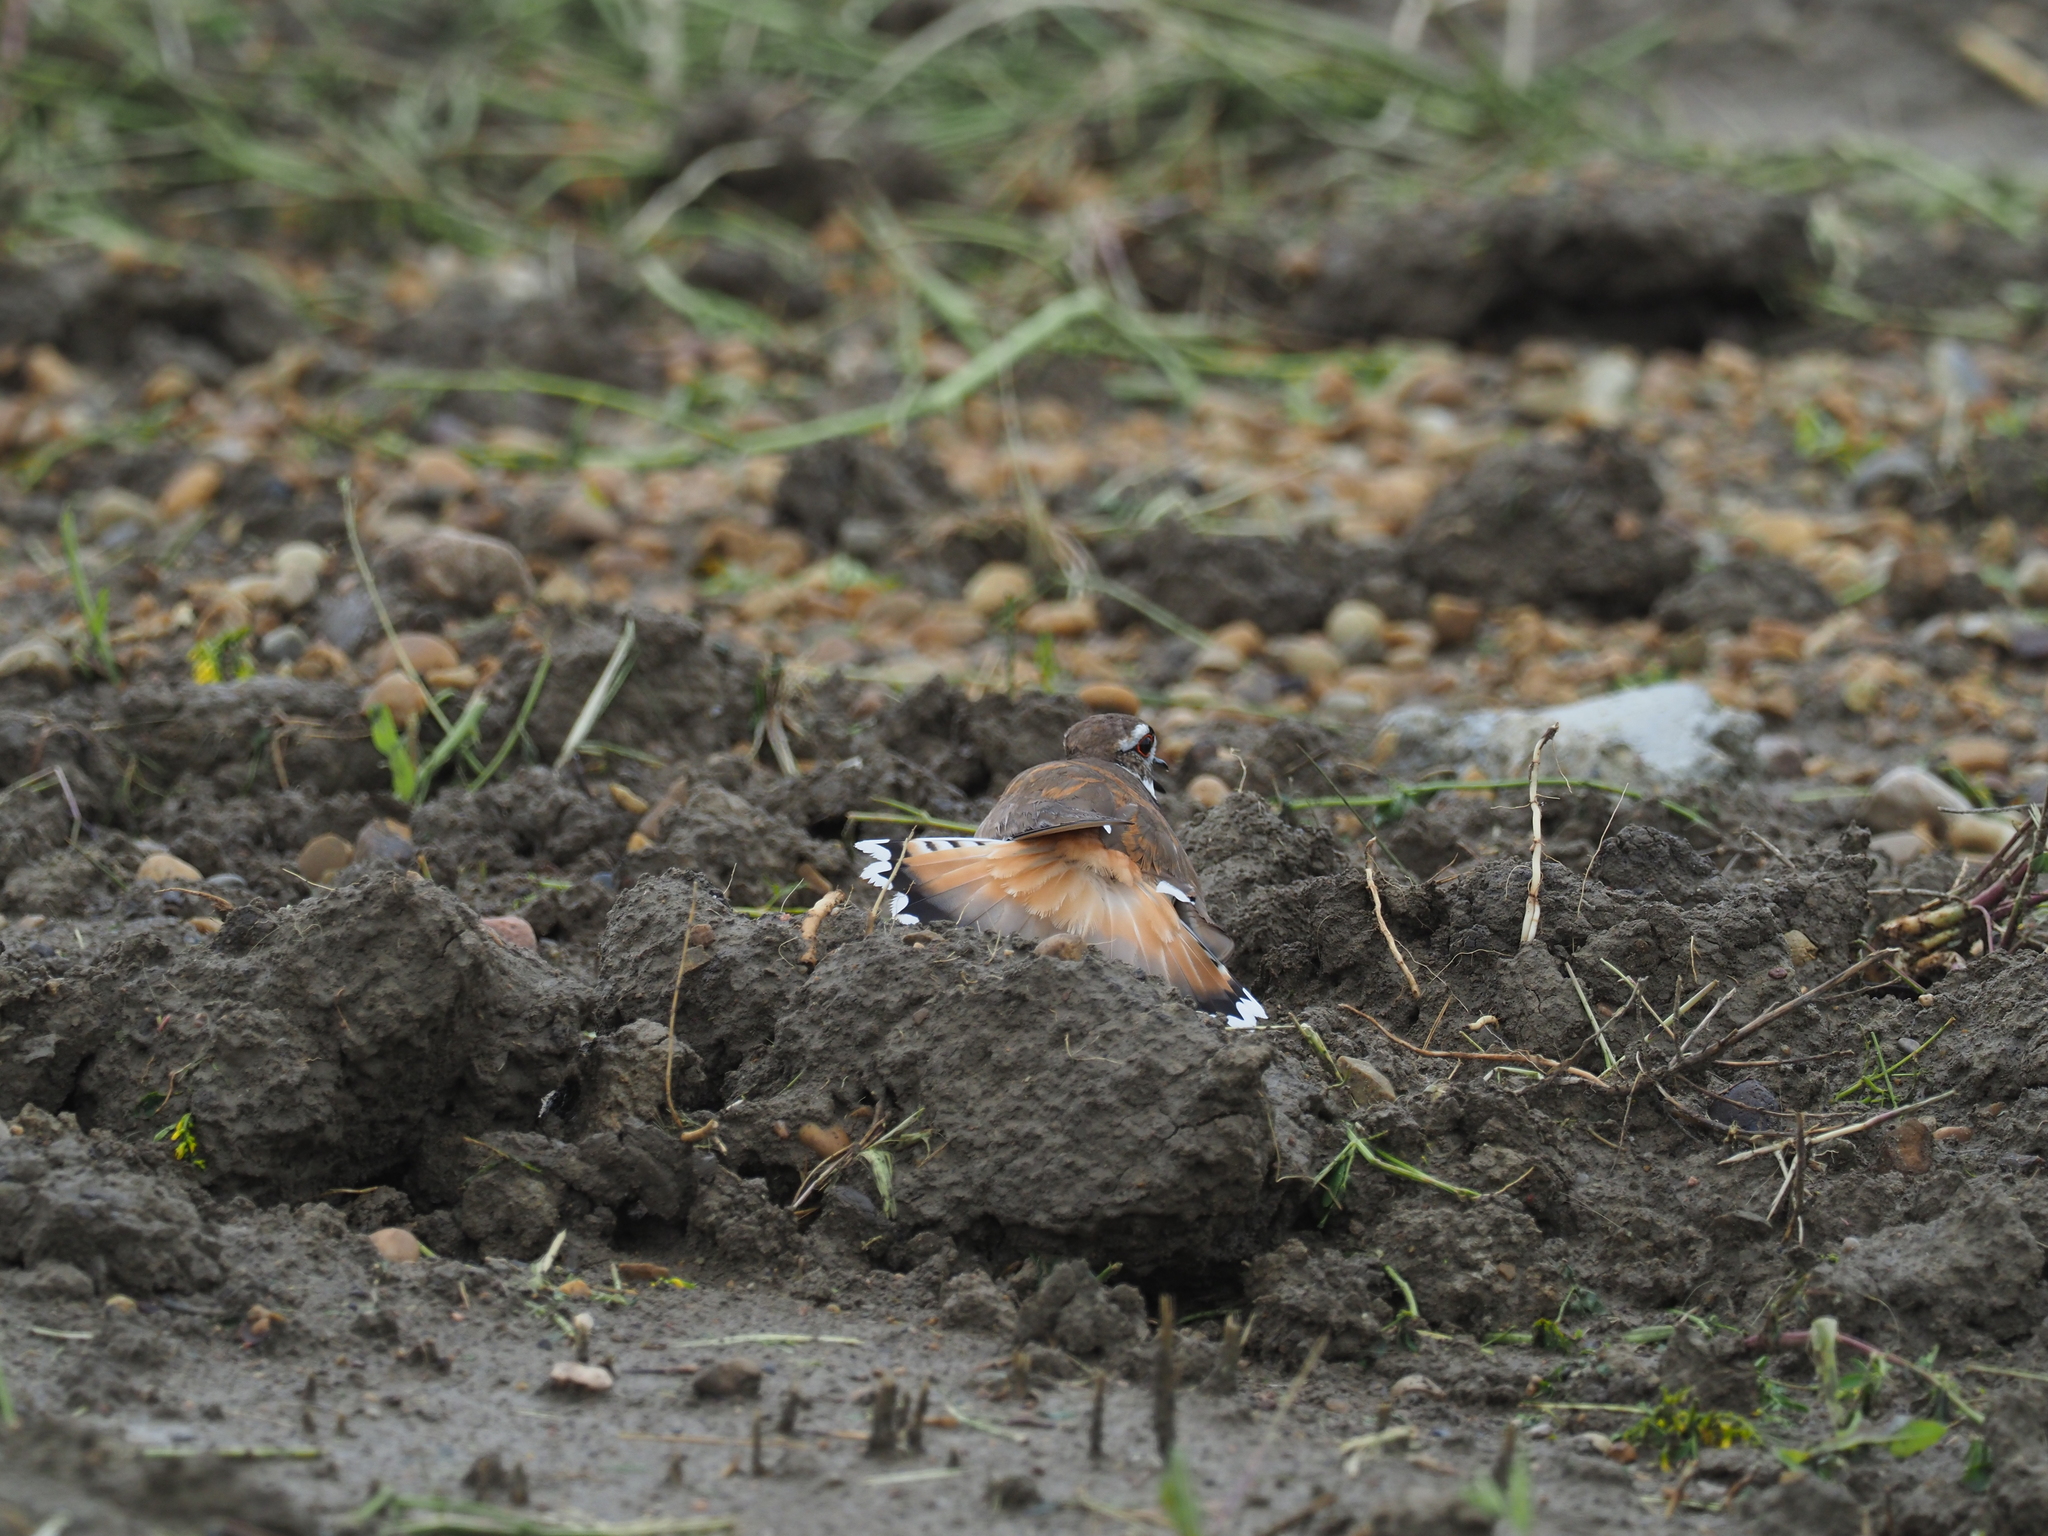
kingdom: Animalia
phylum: Chordata
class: Aves
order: Charadriiformes
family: Charadriidae
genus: Charadrius
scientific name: Charadrius vociferus
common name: Killdeer
